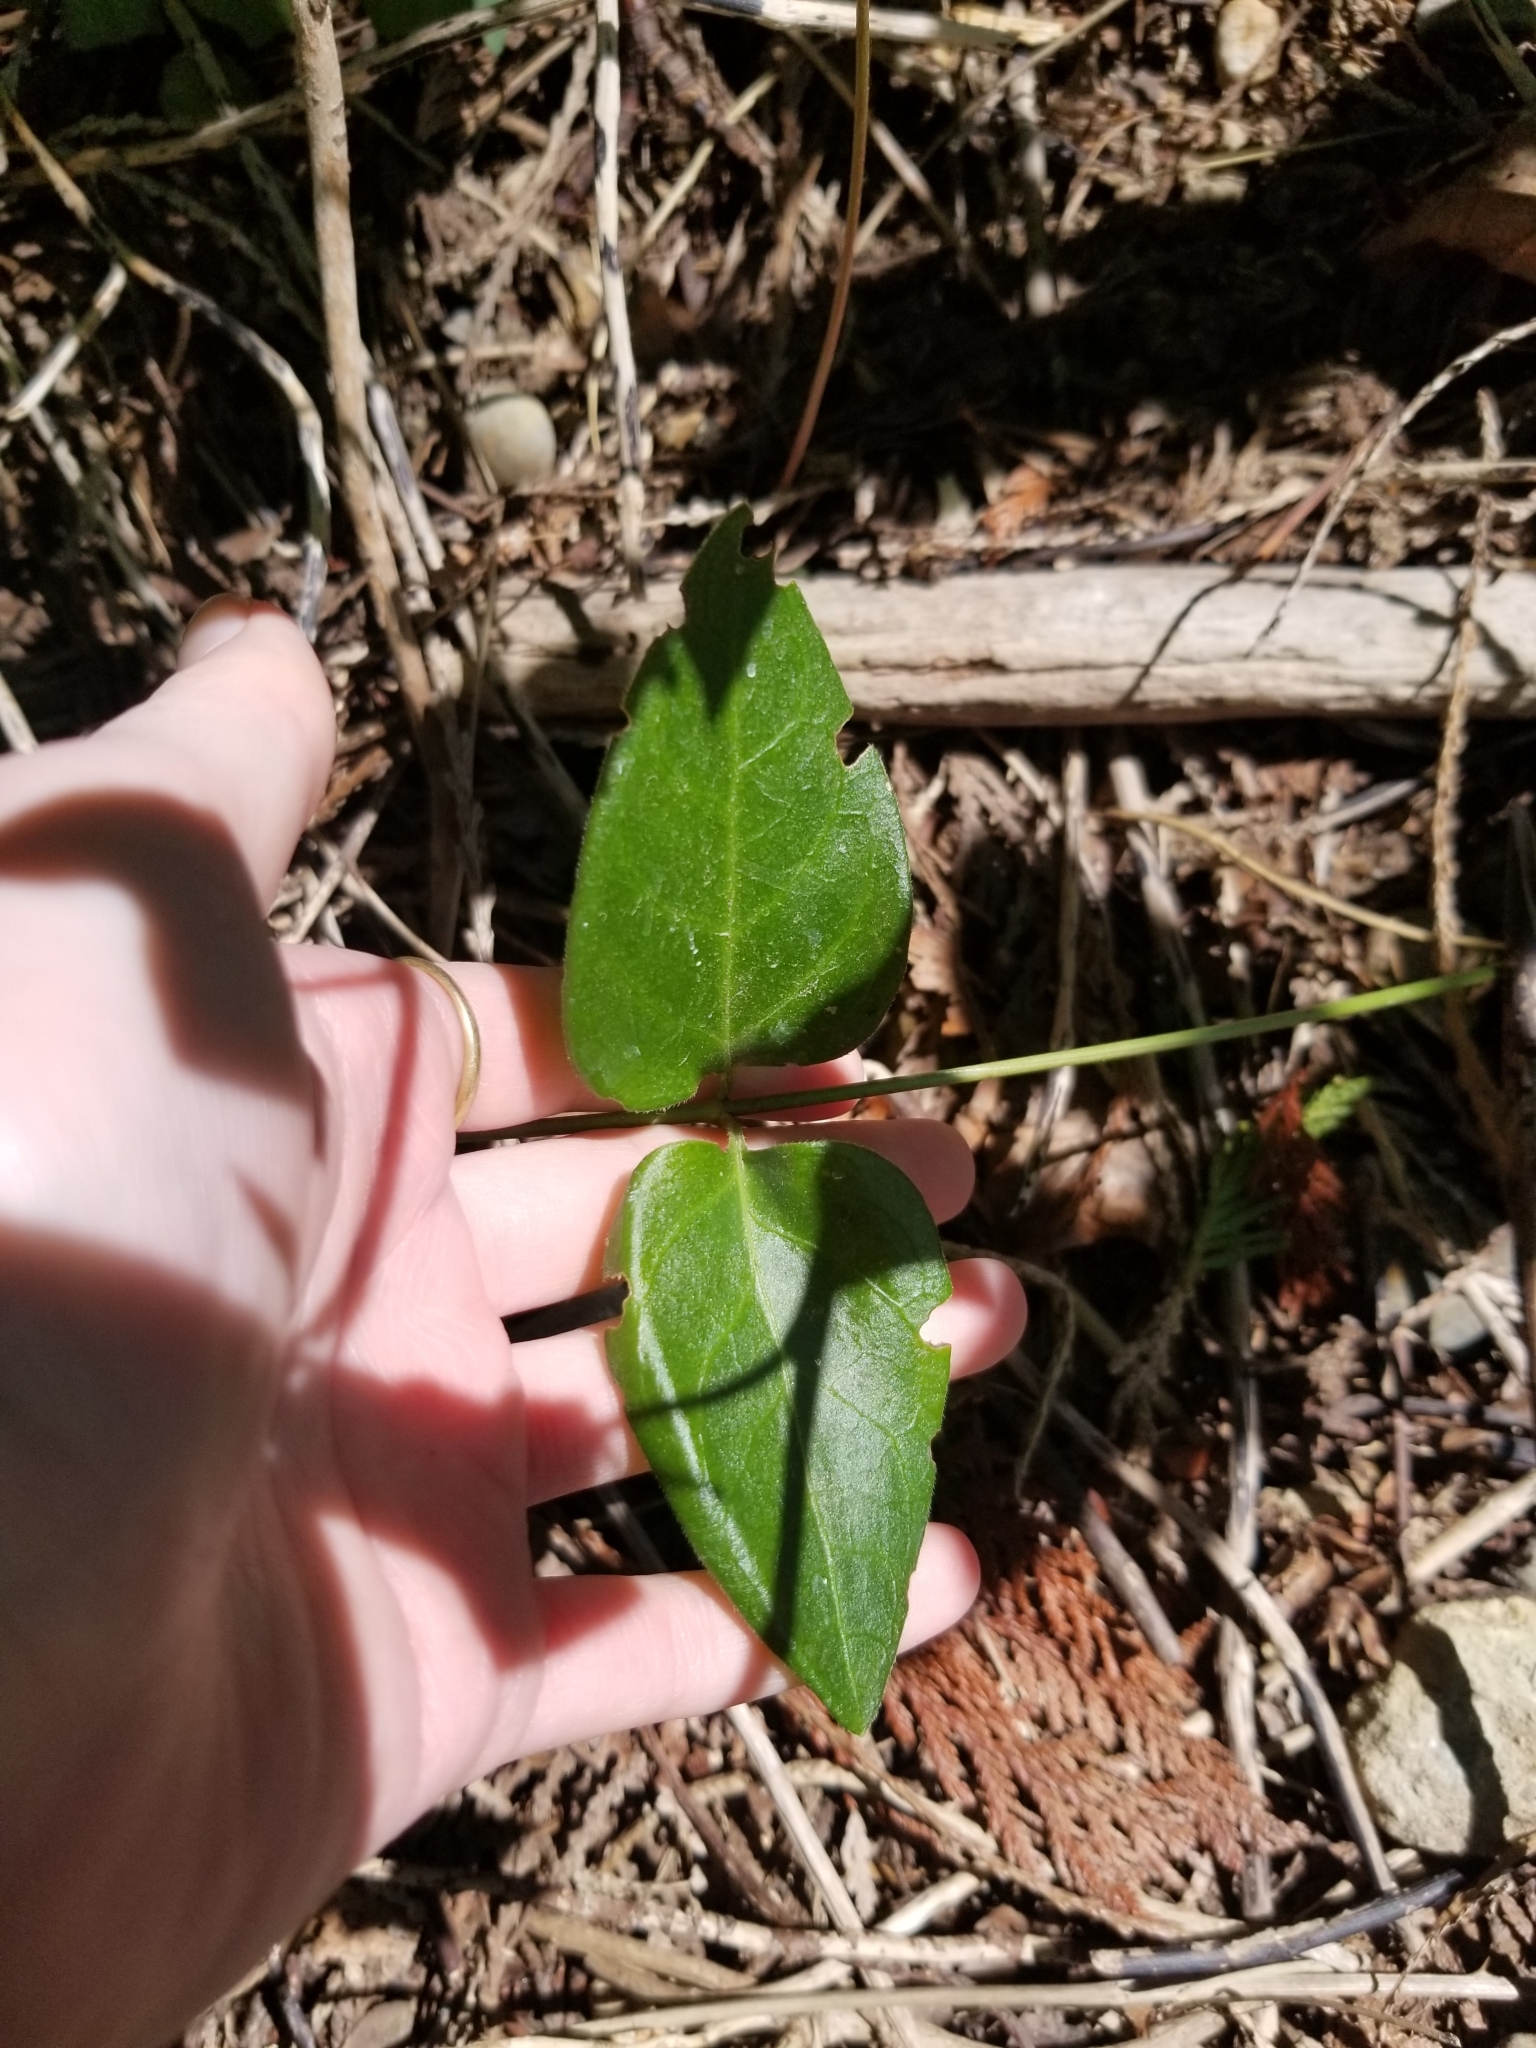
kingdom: Plantae
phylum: Tracheophyta
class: Magnoliopsida
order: Gentianales
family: Apocynaceae
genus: Vinca
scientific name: Vinca major
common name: Greater periwinkle
